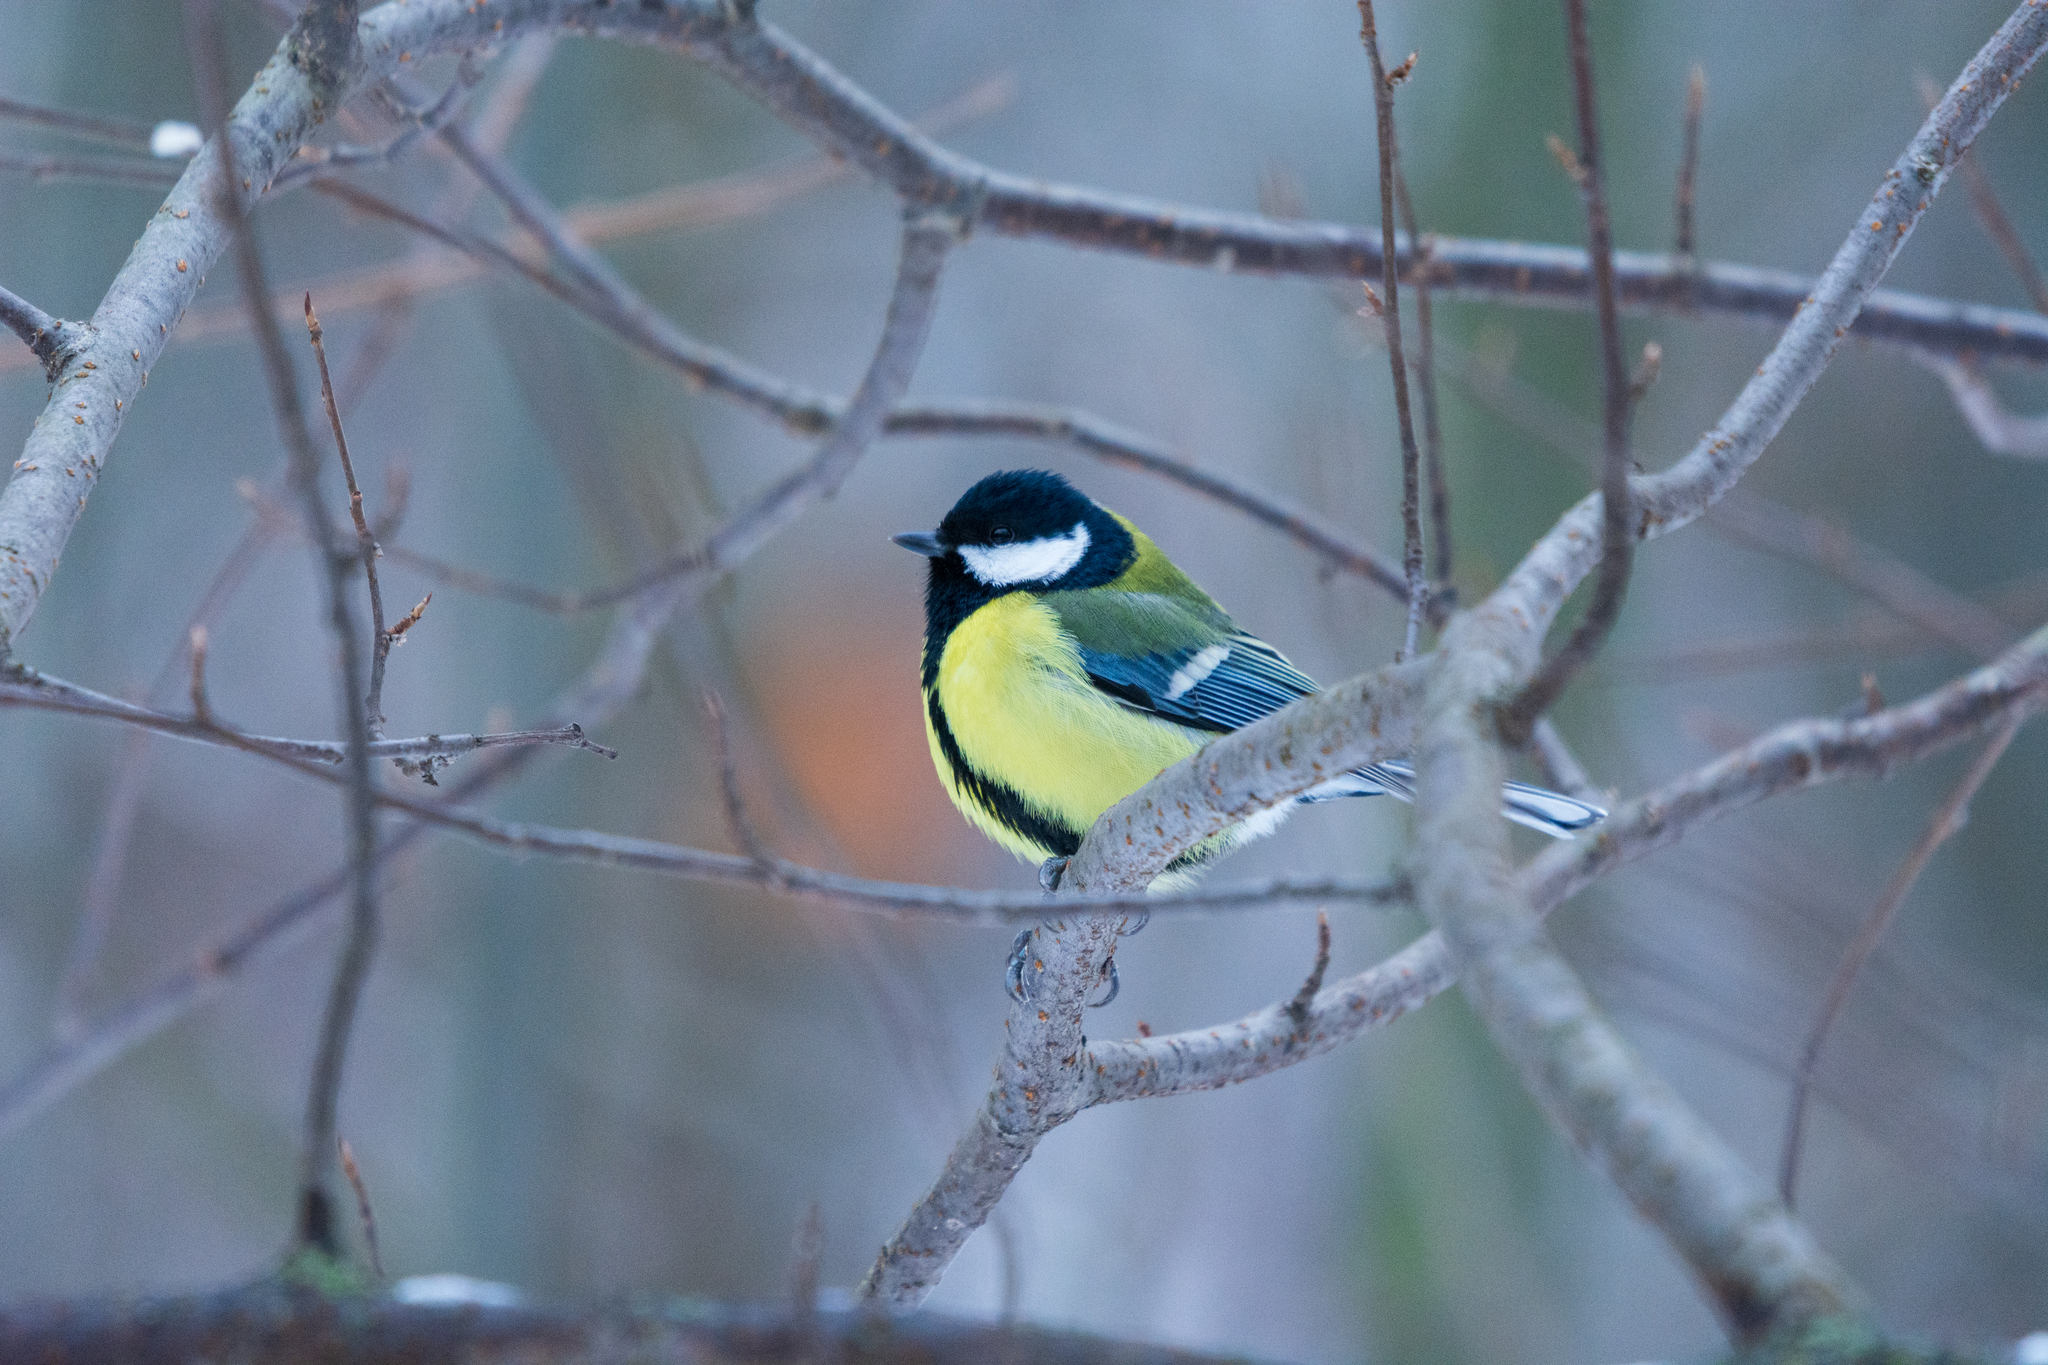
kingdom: Animalia
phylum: Chordata
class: Aves
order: Passeriformes
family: Paridae
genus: Parus
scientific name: Parus major
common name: Great tit
